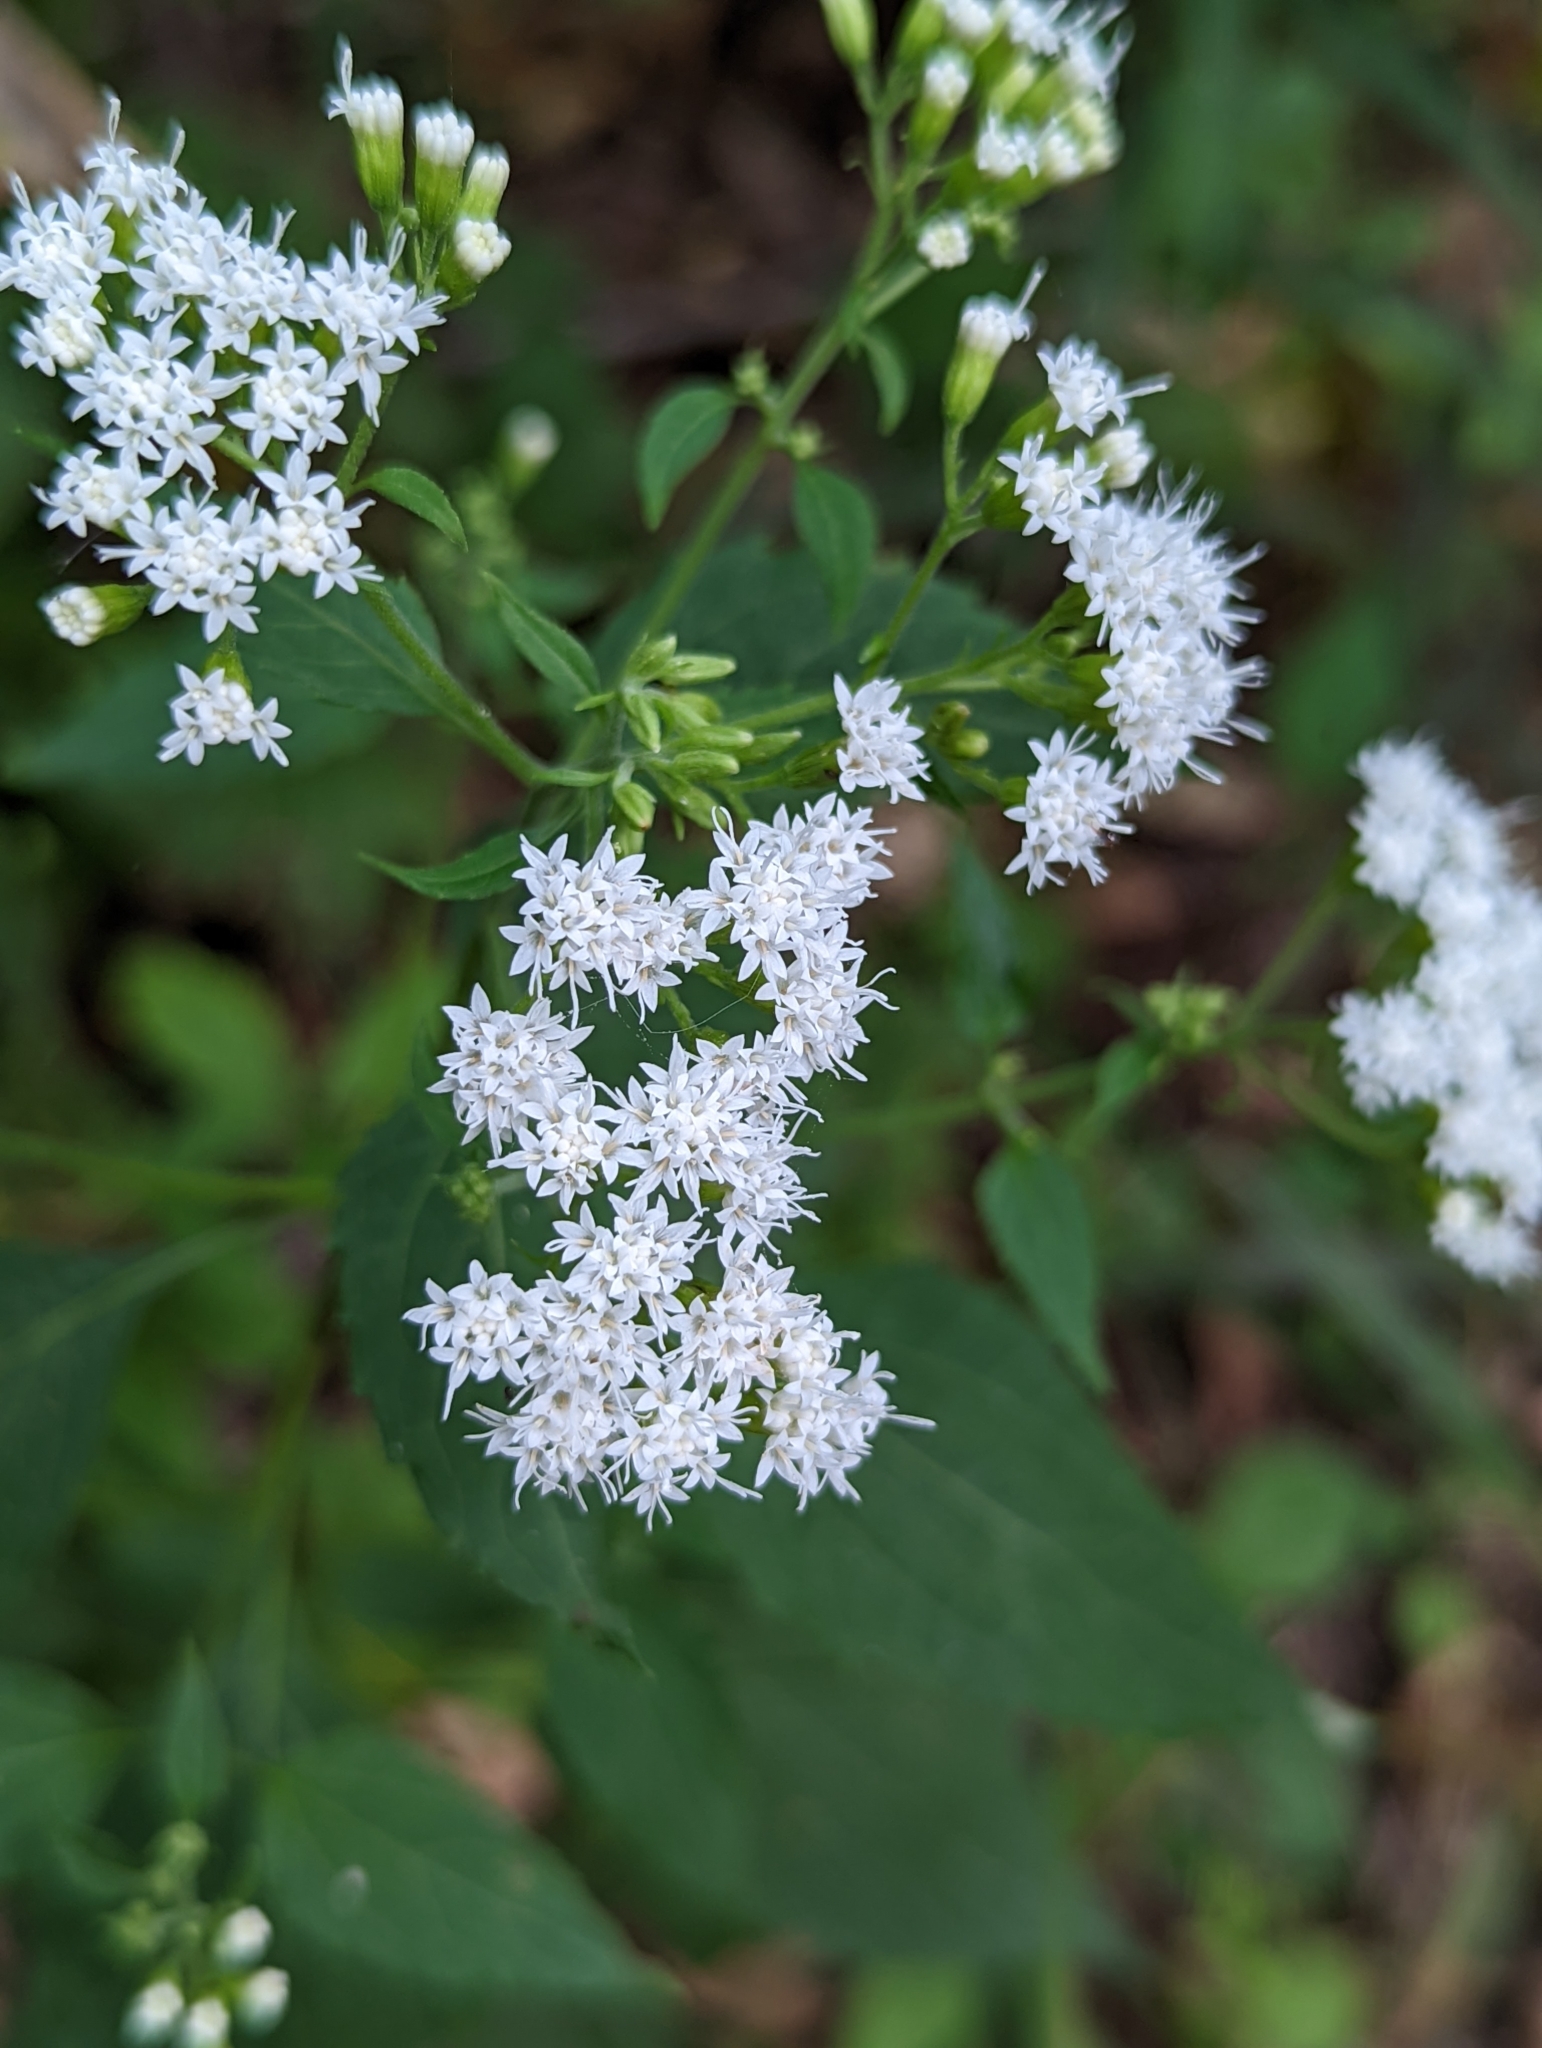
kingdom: Plantae
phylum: Tracheophyta
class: Magnoliopsida
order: Asterales
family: Asteraceae
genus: Ageratina
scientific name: Ageratina altissima
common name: White snakeroot
